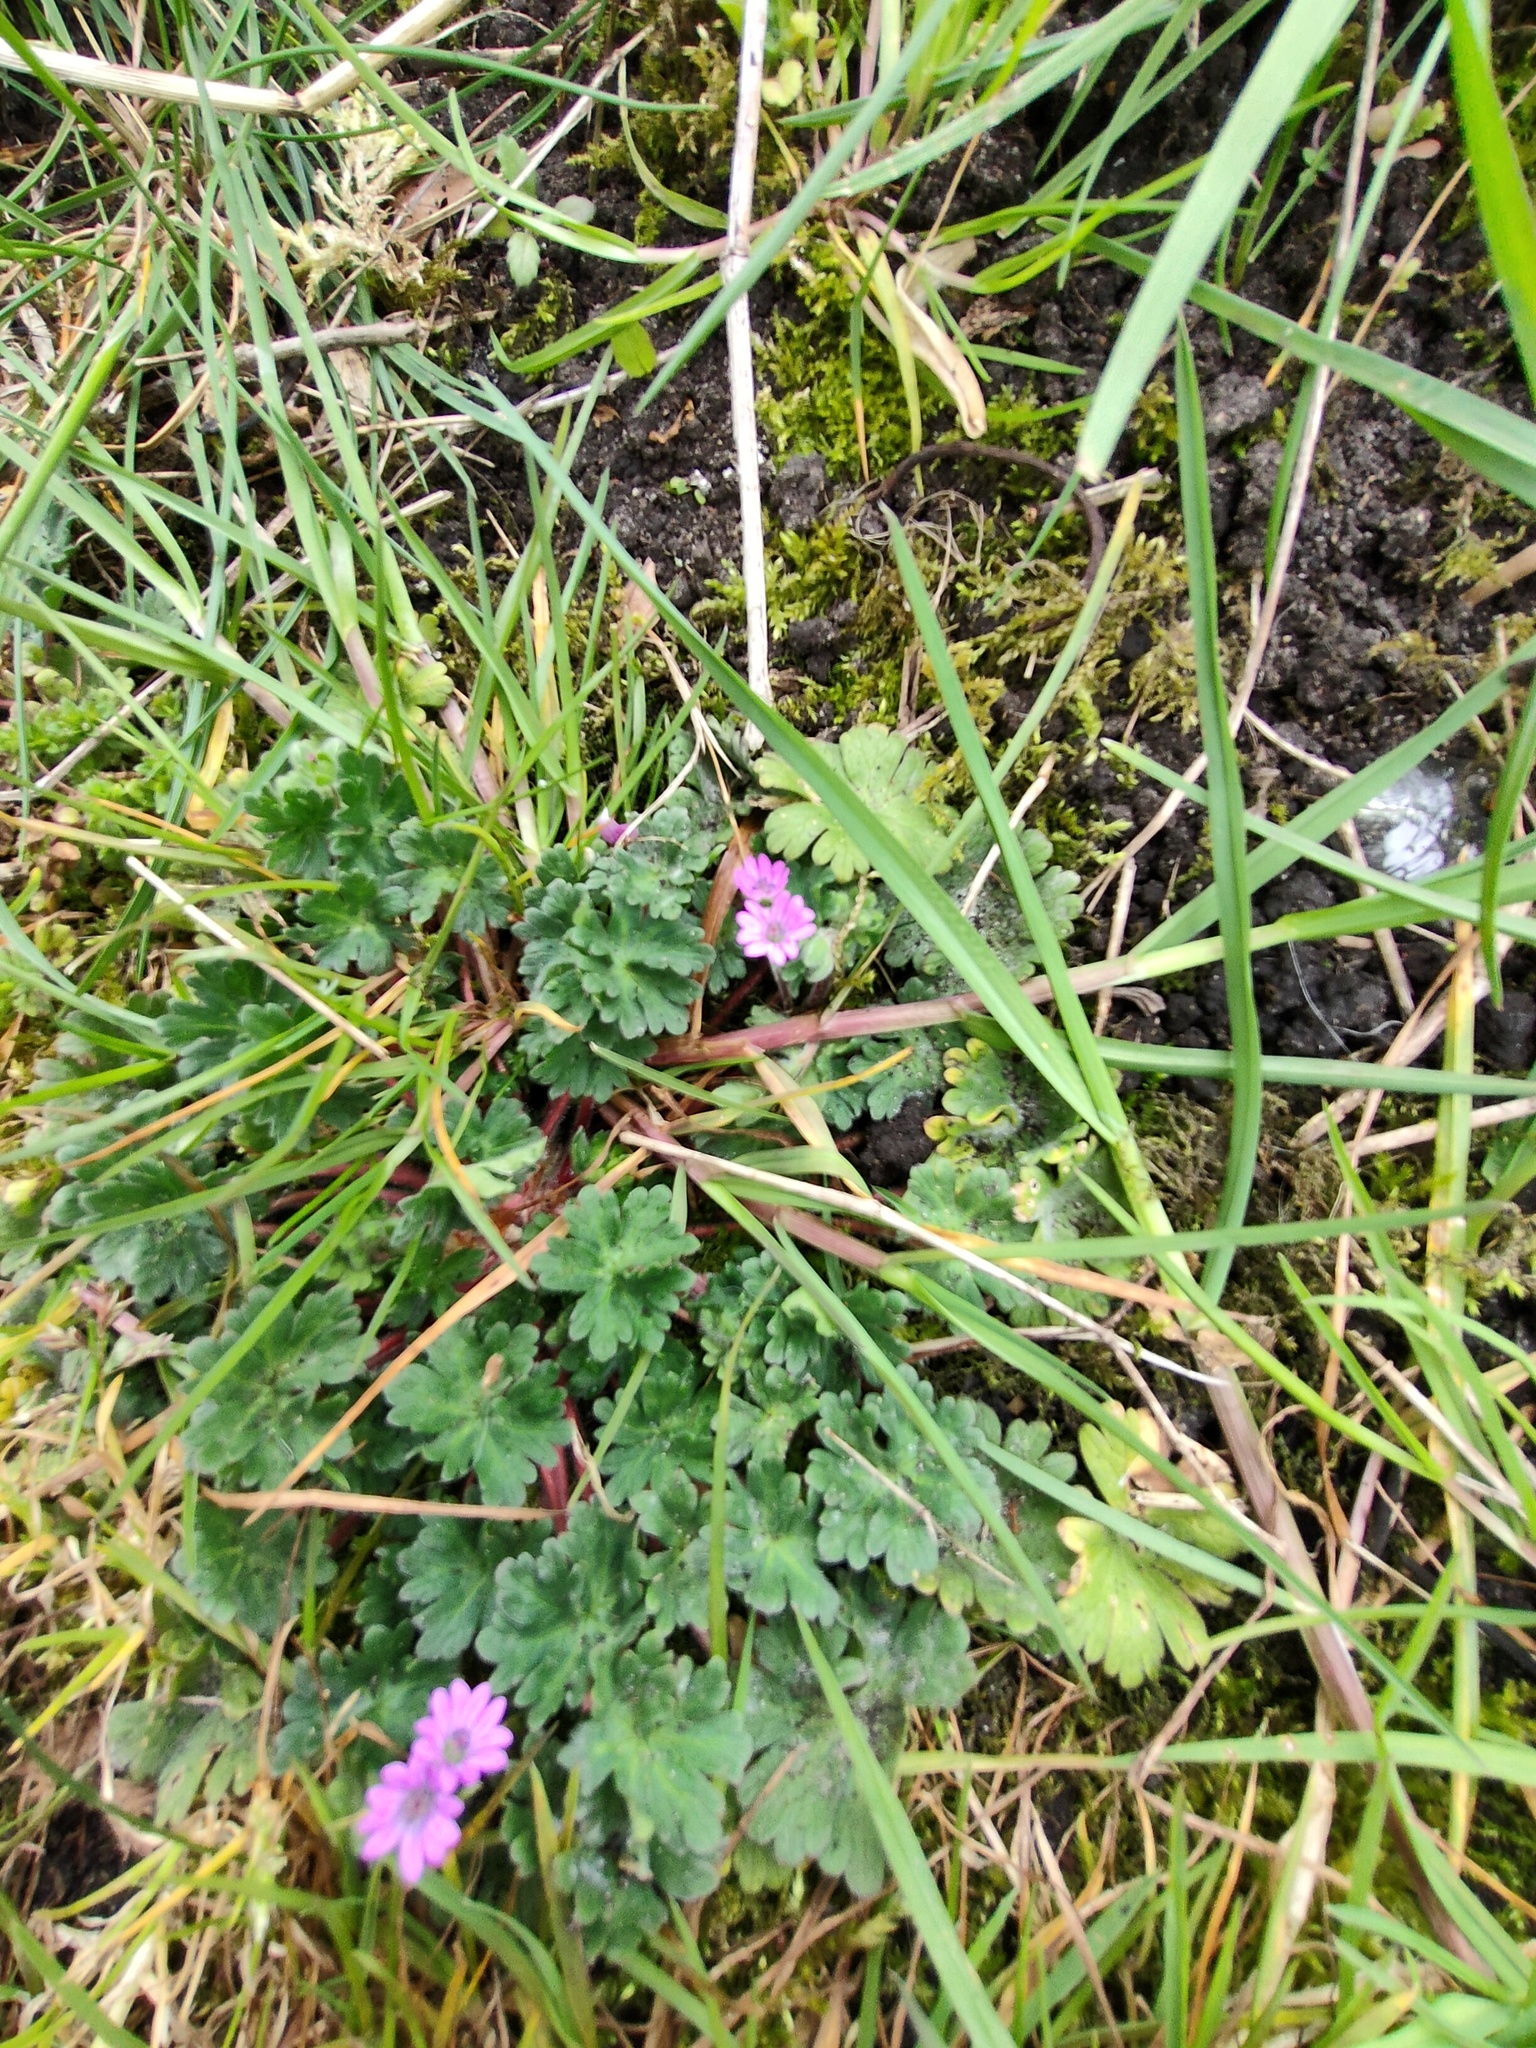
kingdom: Plantae
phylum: Tracheophyta
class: Magnoliopsida
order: Geraniales
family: Geraniaceae
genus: Geranium
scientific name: Geranium molle
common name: Dove's-foot crane's-bill
